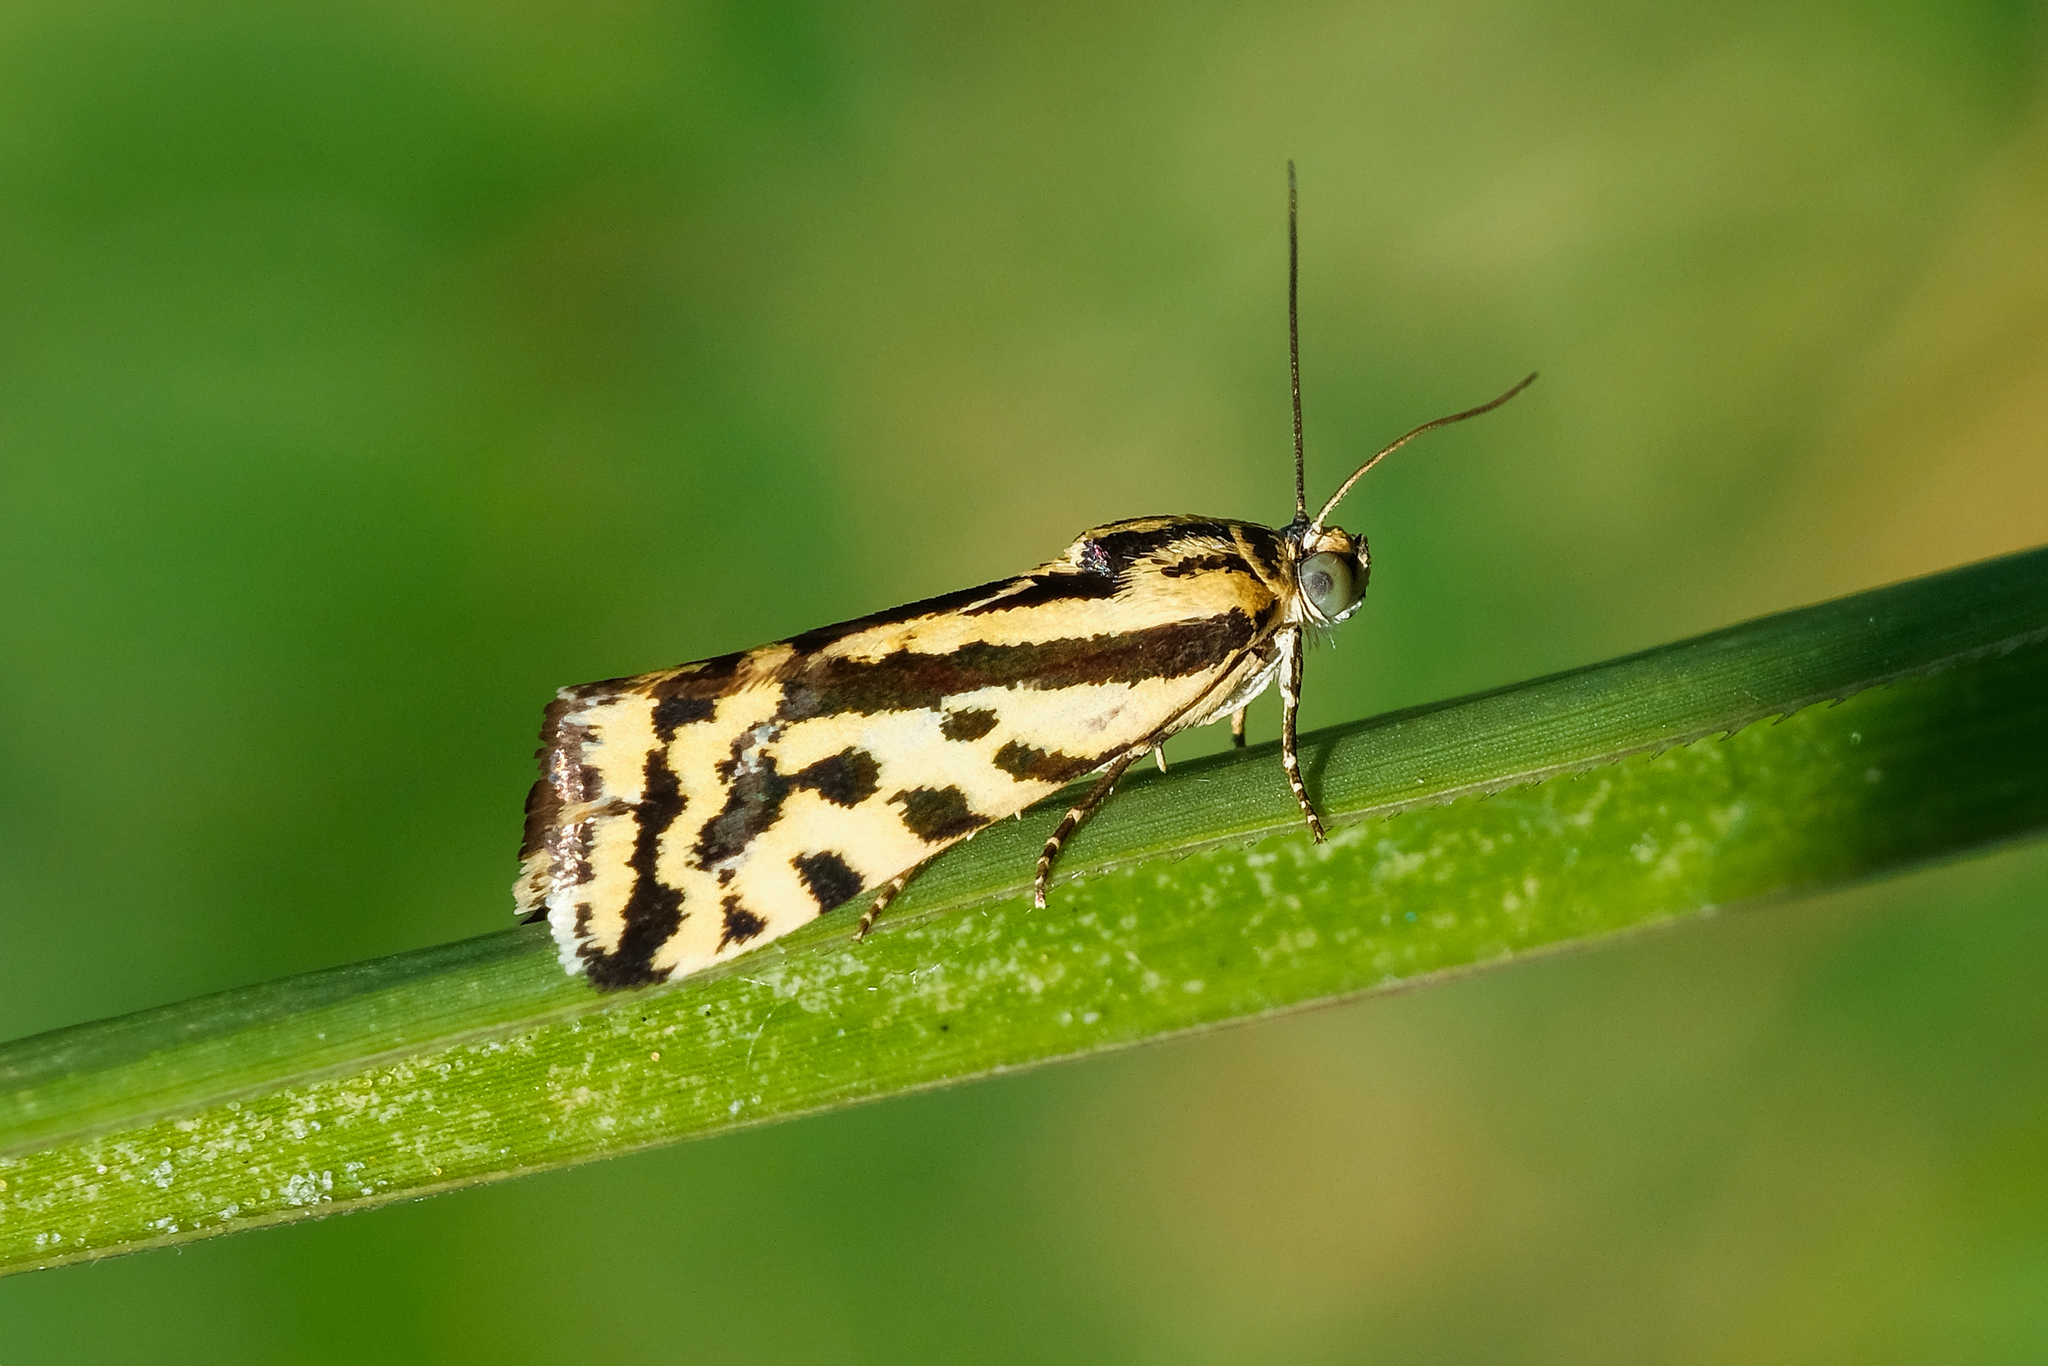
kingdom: Animalia
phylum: Arthropoda
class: Insecta
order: Lepidoptera
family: Noctuidae
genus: Acontia
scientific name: Acontia trabealis
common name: Spotted sulphur
